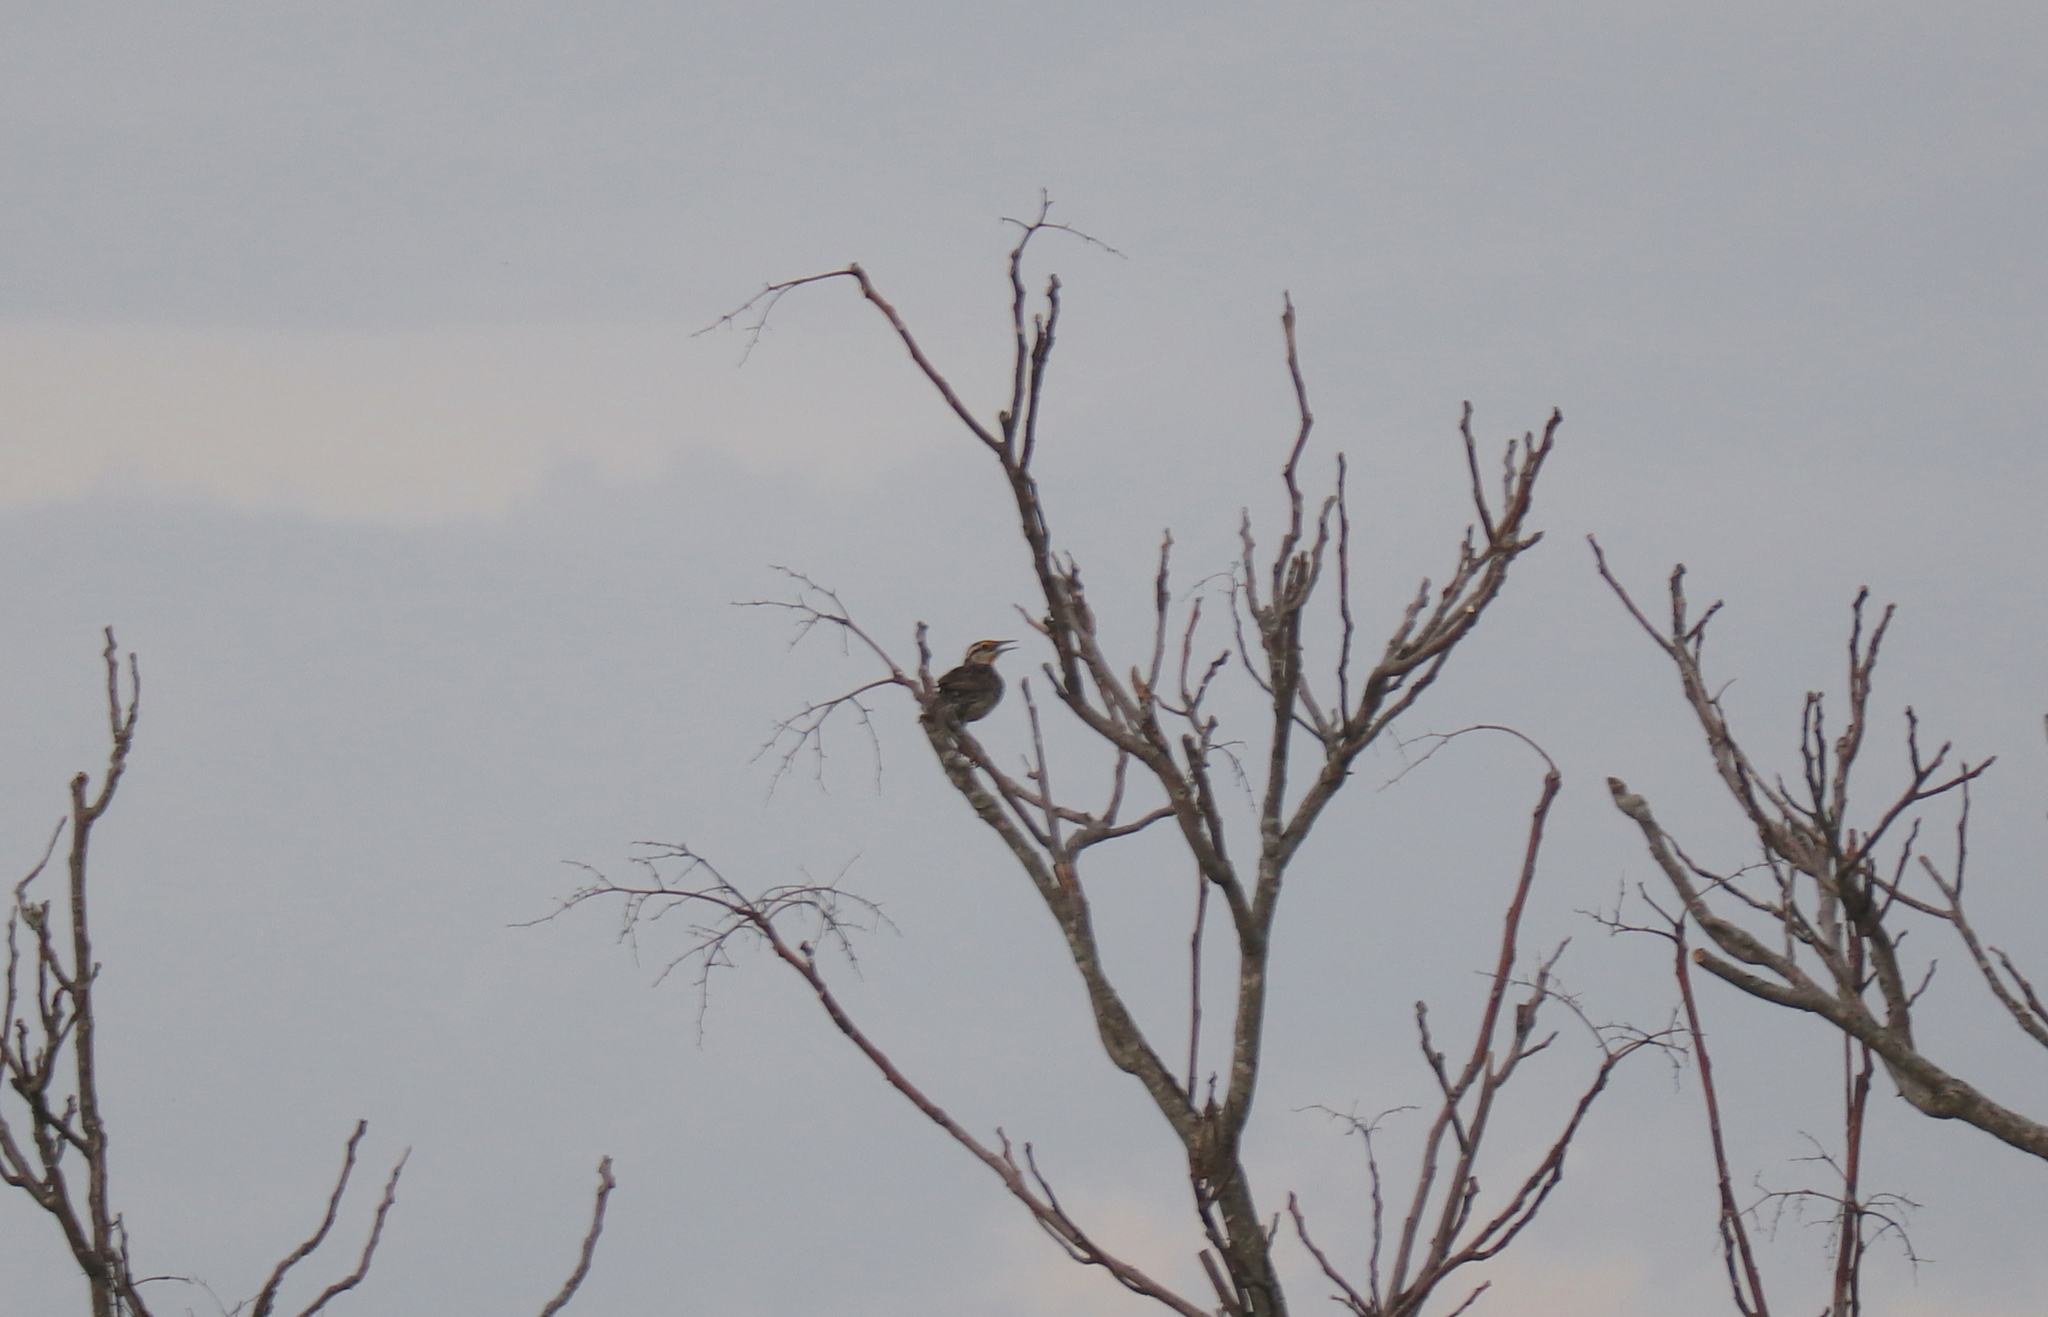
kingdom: Animalia
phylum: Chordata
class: Aves
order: Passeriformes
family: Icteridae
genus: Sturnella
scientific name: Sturnella magna
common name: Eastern meadowlark
